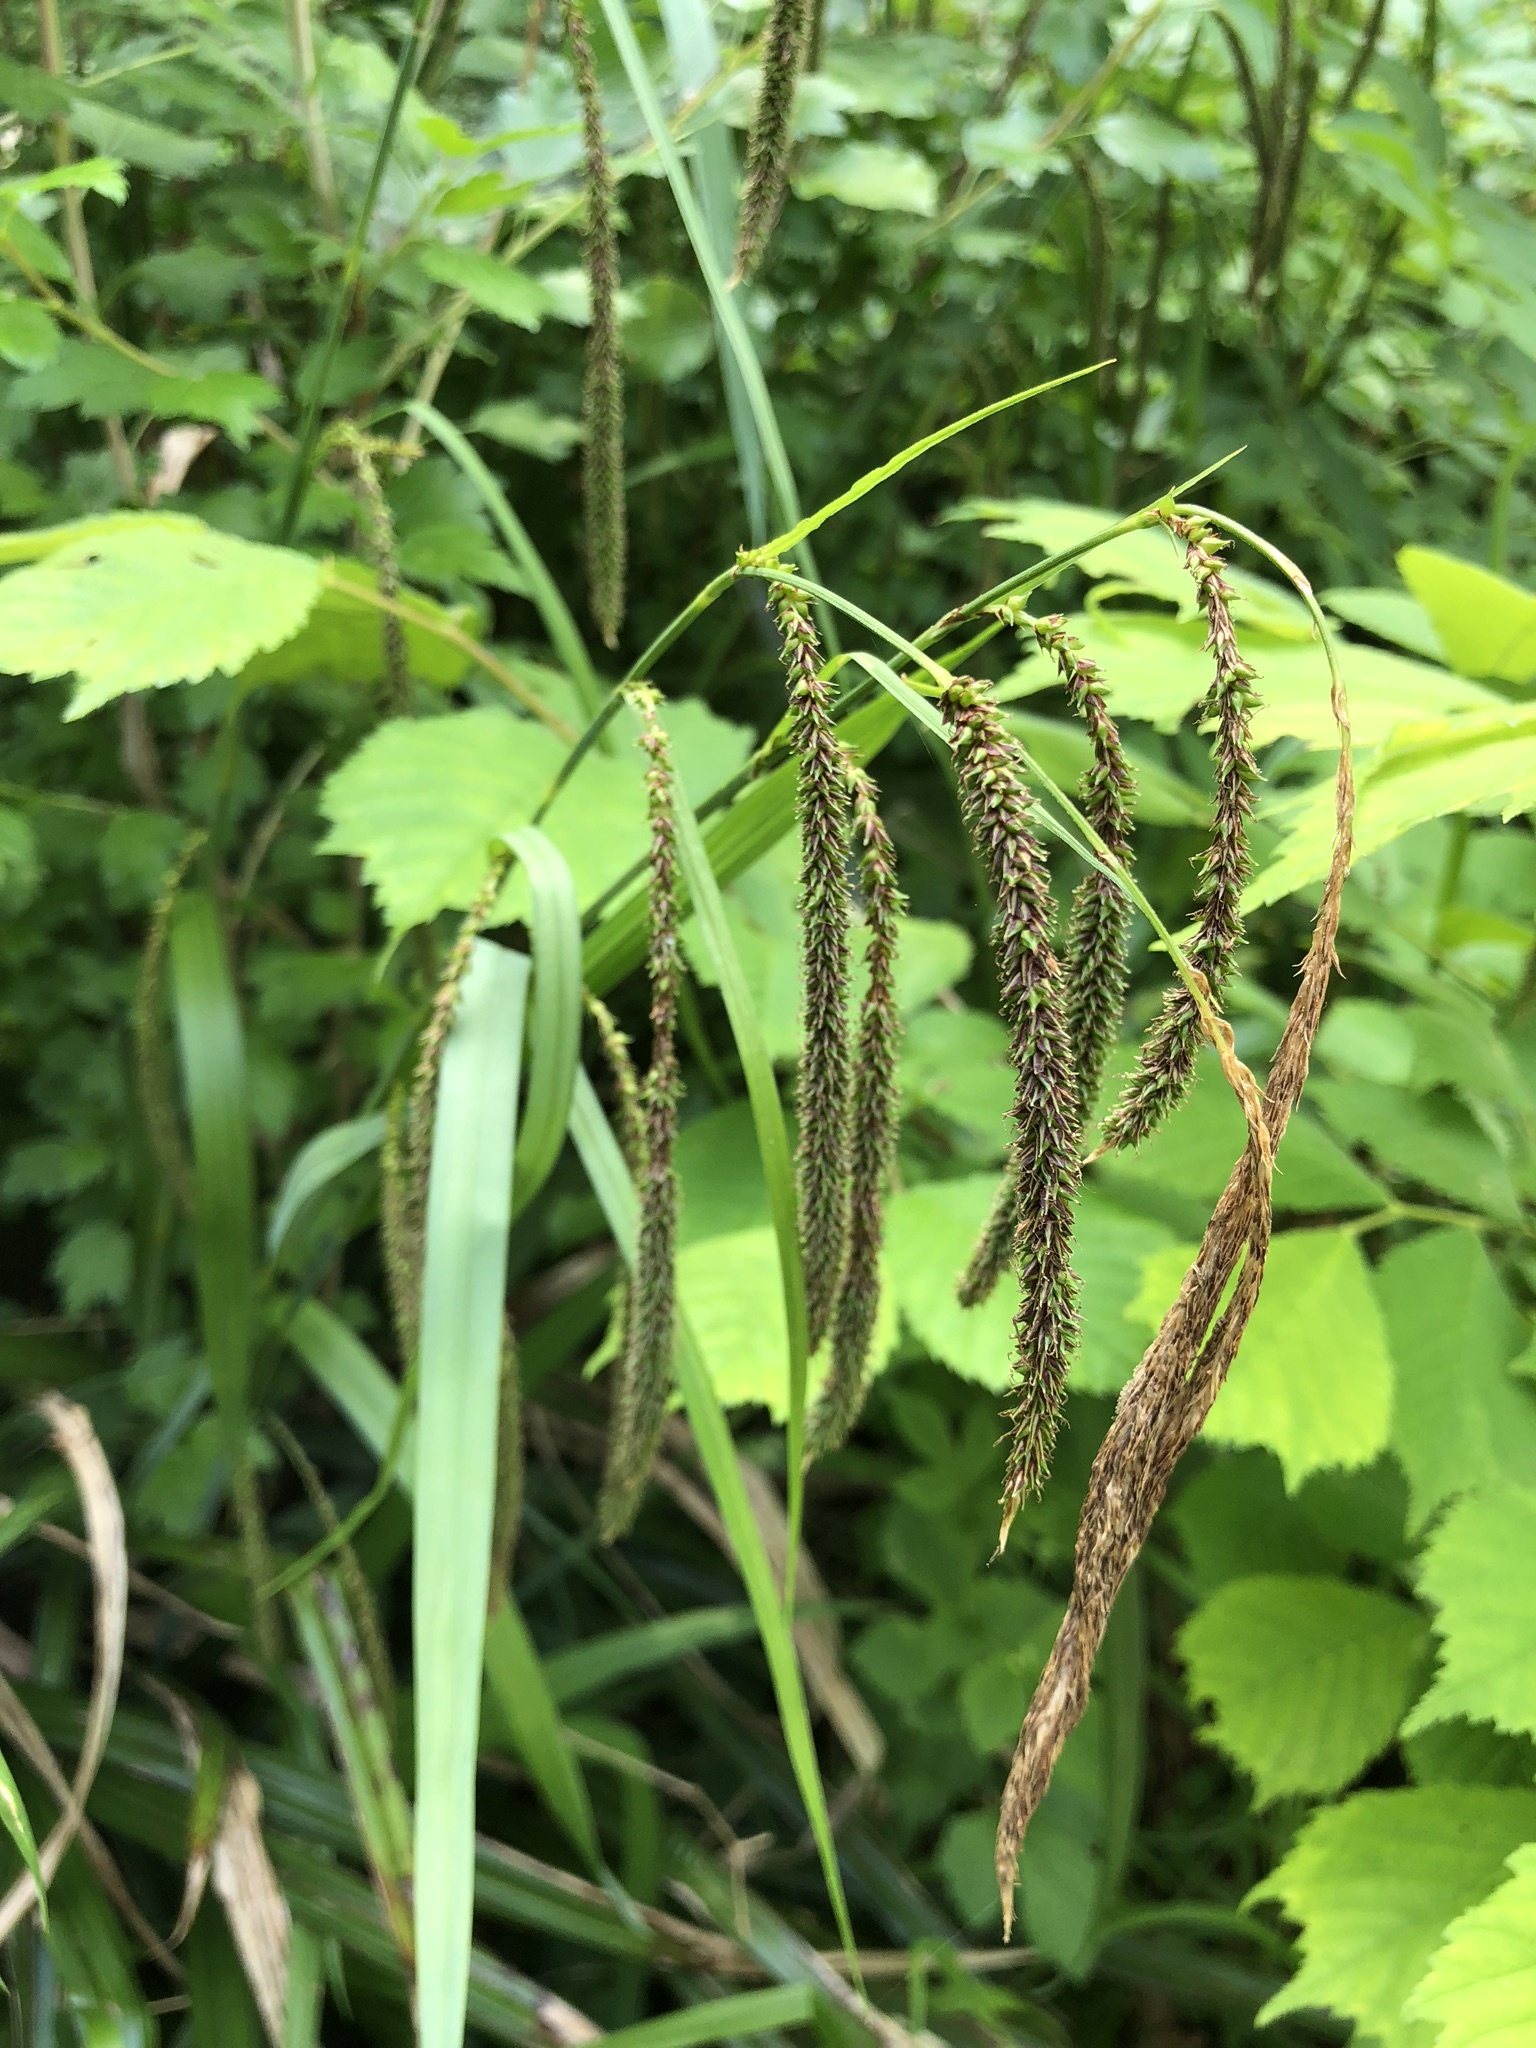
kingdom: Plantae
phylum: Tracheophyta
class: Liliopsida
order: Poales
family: Cyperaceae
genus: Carex
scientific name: Carex pendula
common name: Pendulous sedge
